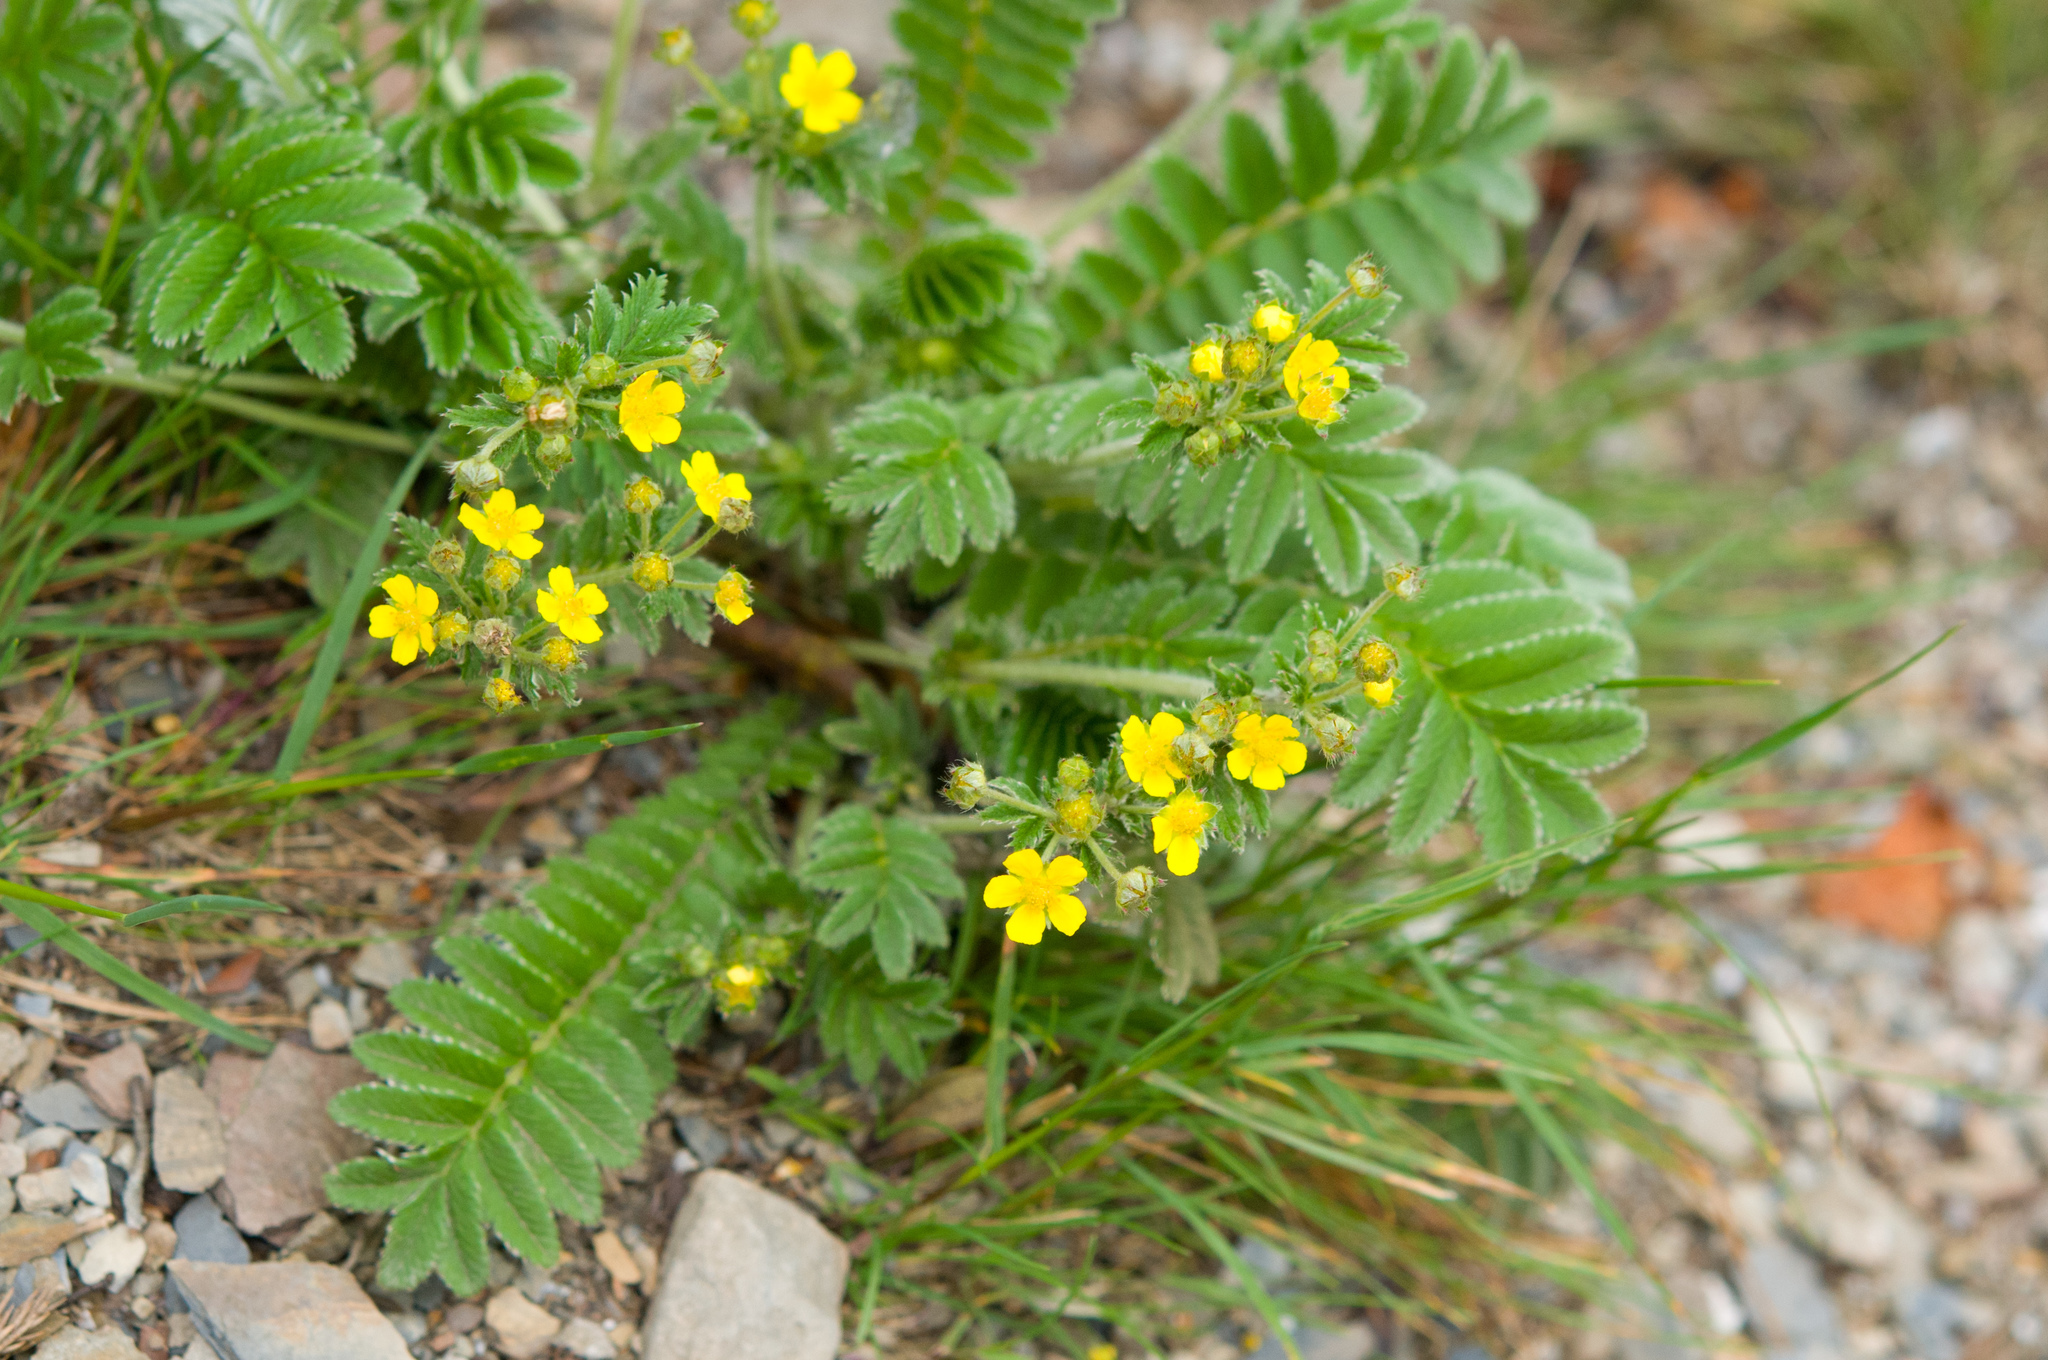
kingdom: Plantae
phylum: Tracheophyta
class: Magnoliopsida
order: Rosales
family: Rosaceae
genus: Argentina
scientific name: Argentina leuconota
